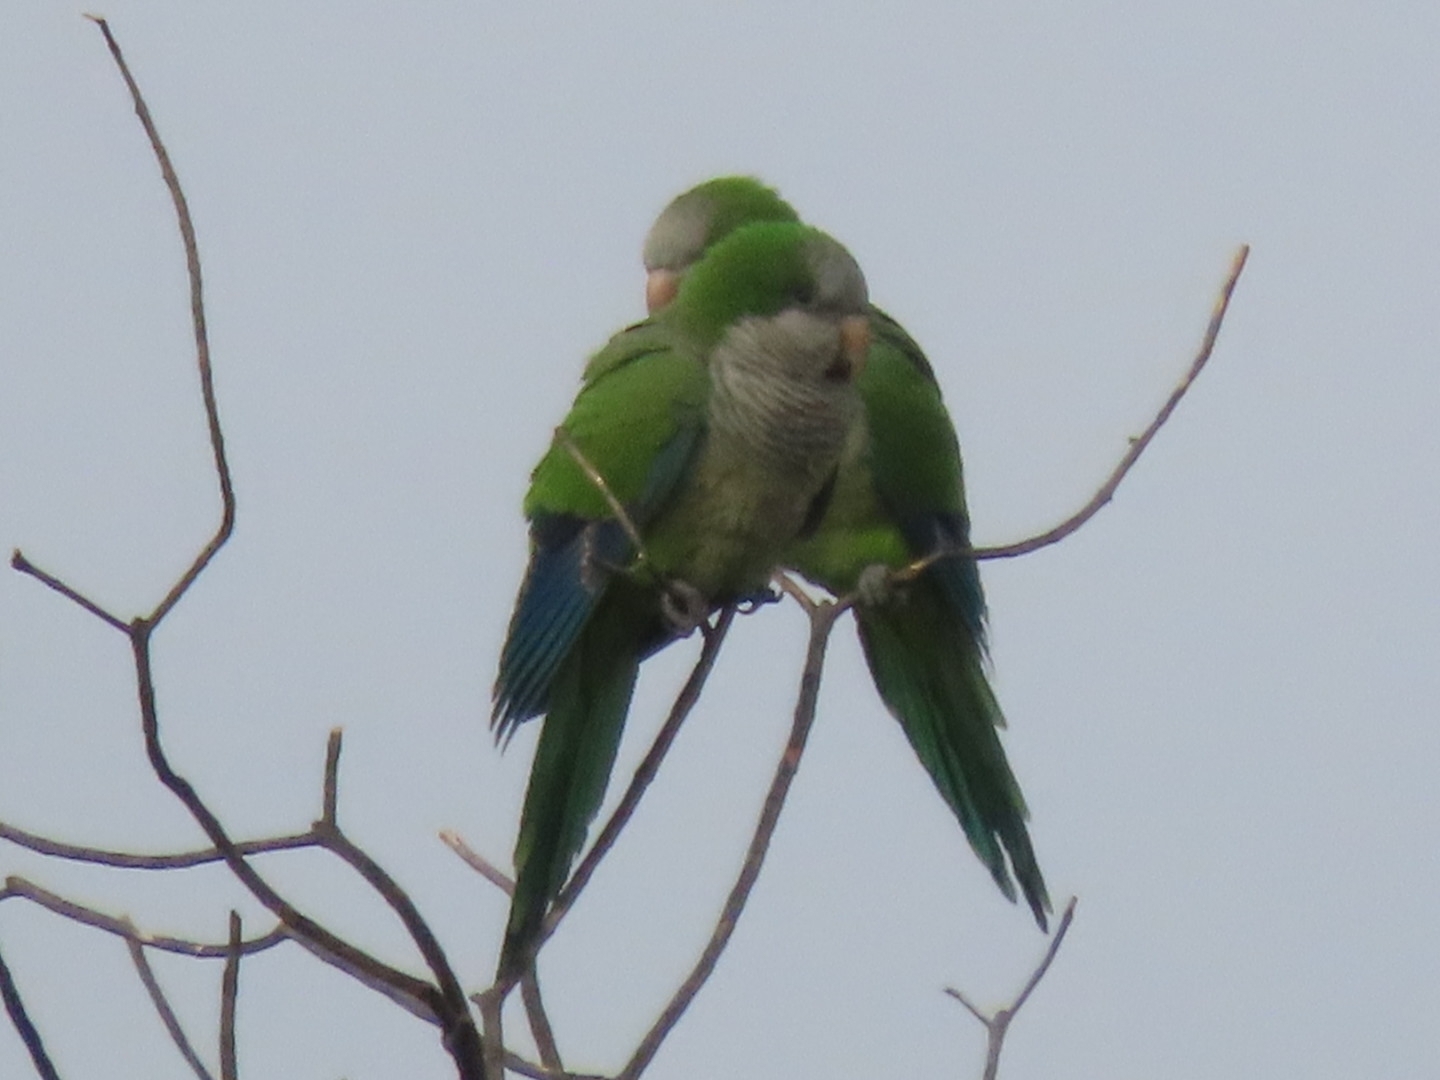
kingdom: Animalia
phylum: Chordata
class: Aves
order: Psittaciformes
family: Psittacidae
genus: Myiopsitta
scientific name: Myiopsitta monachus
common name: Monk parakeet
